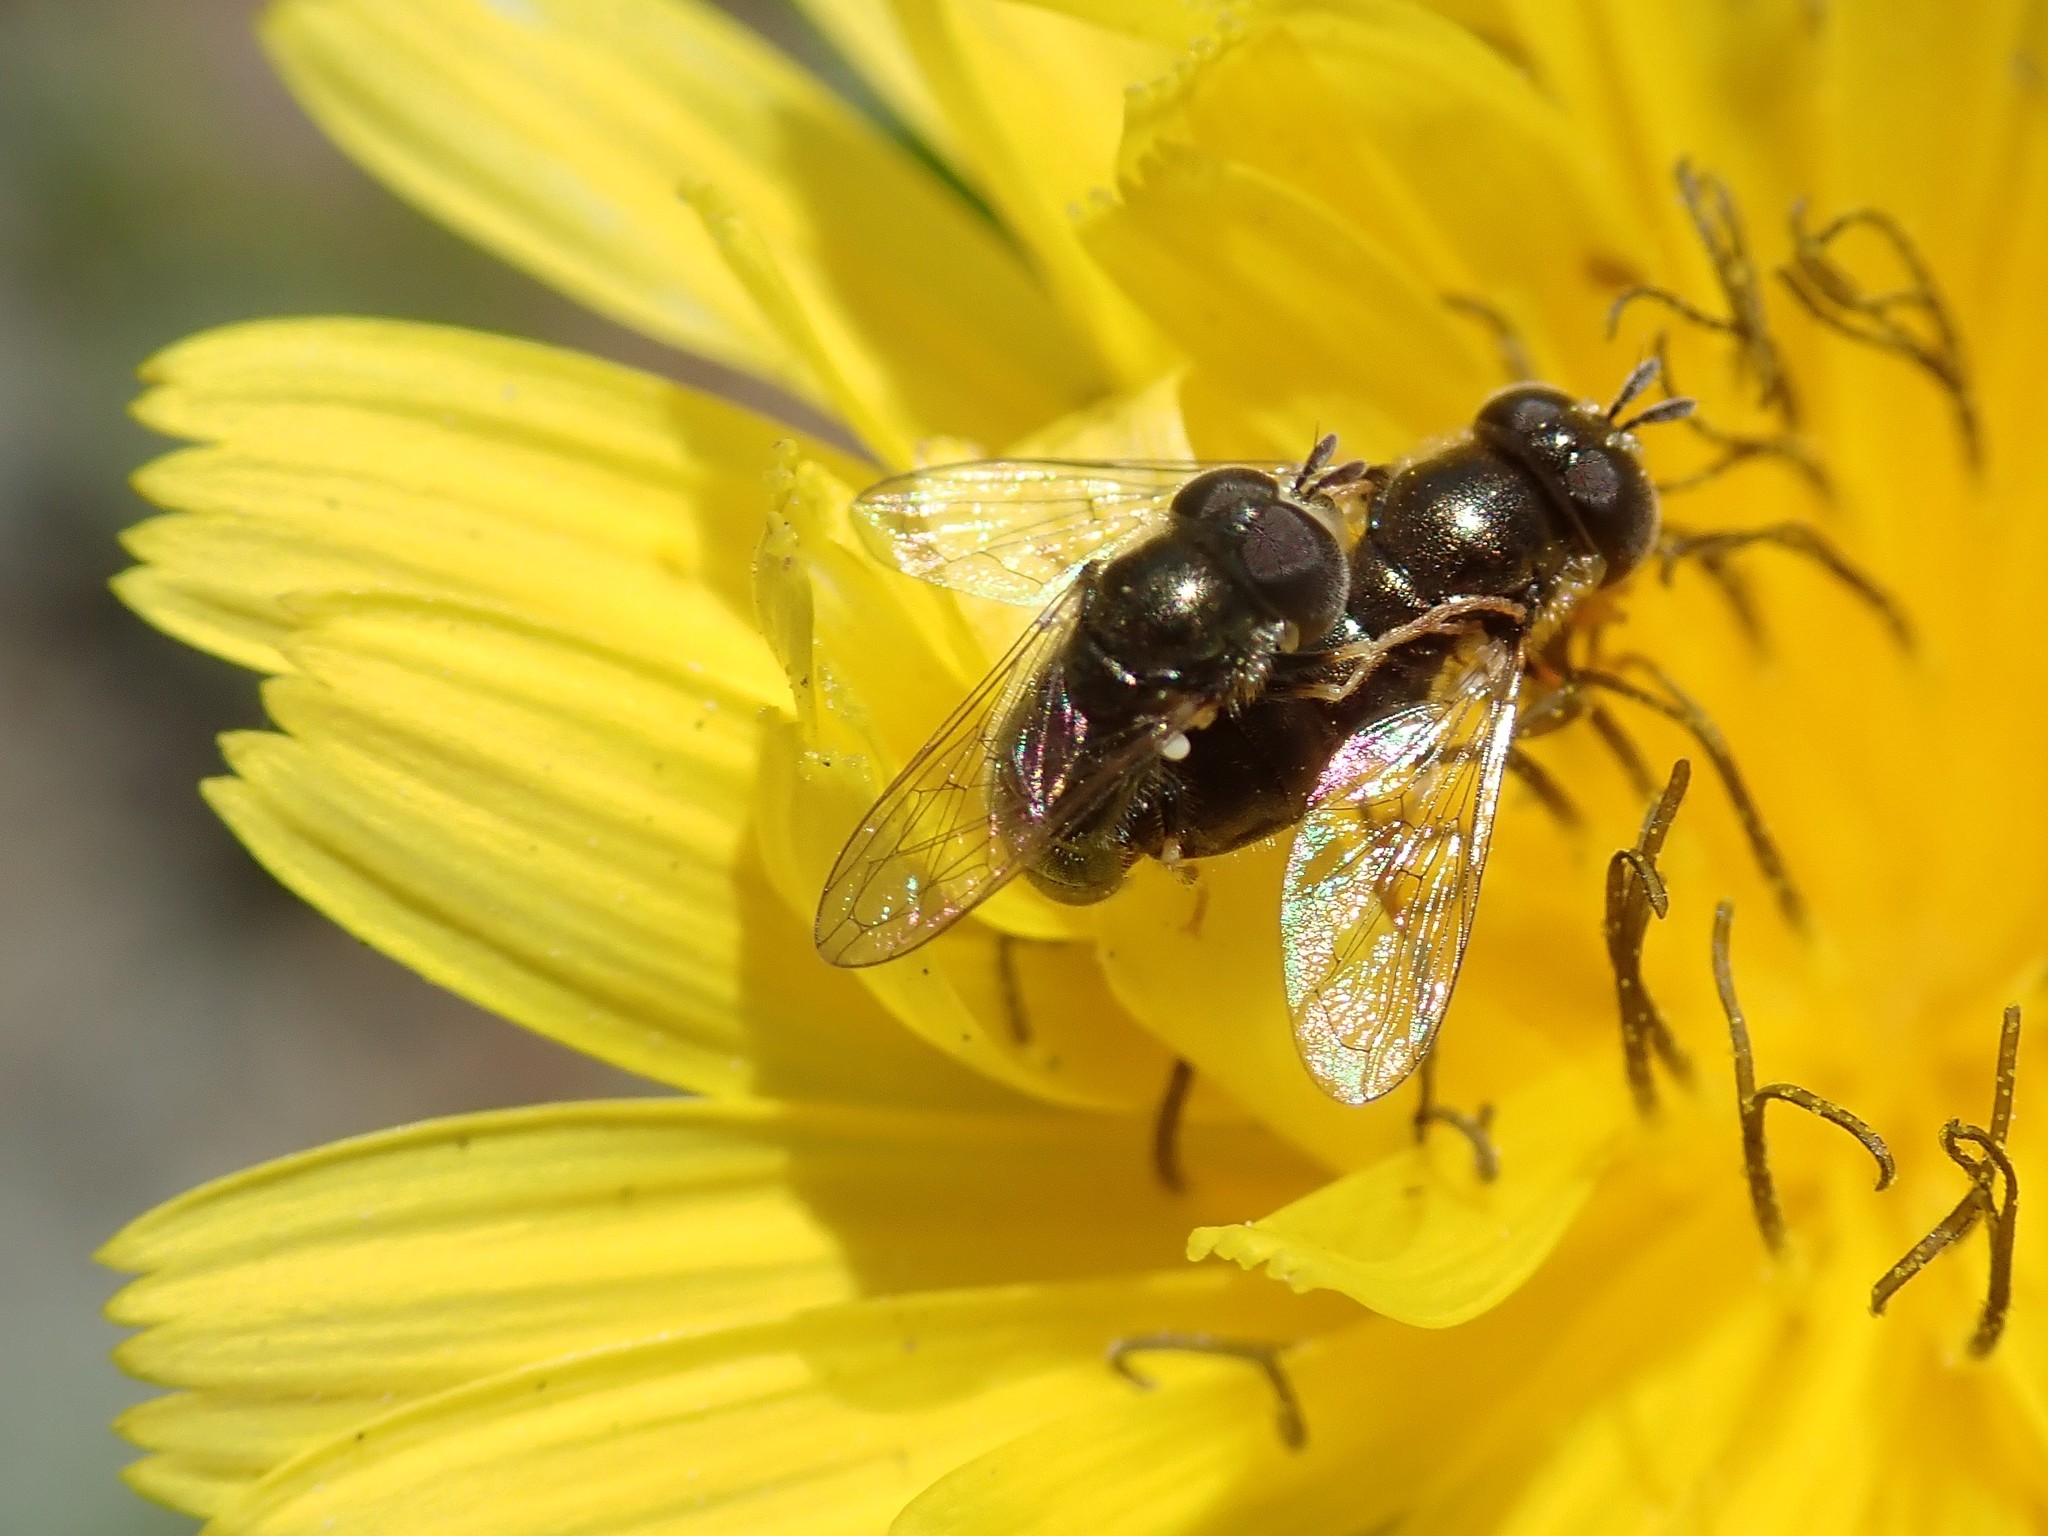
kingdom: Animalia
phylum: Arthropoda
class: Insecta
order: Diptera
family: Syrphidae
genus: Paragus
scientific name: Paragus haemorrhous
